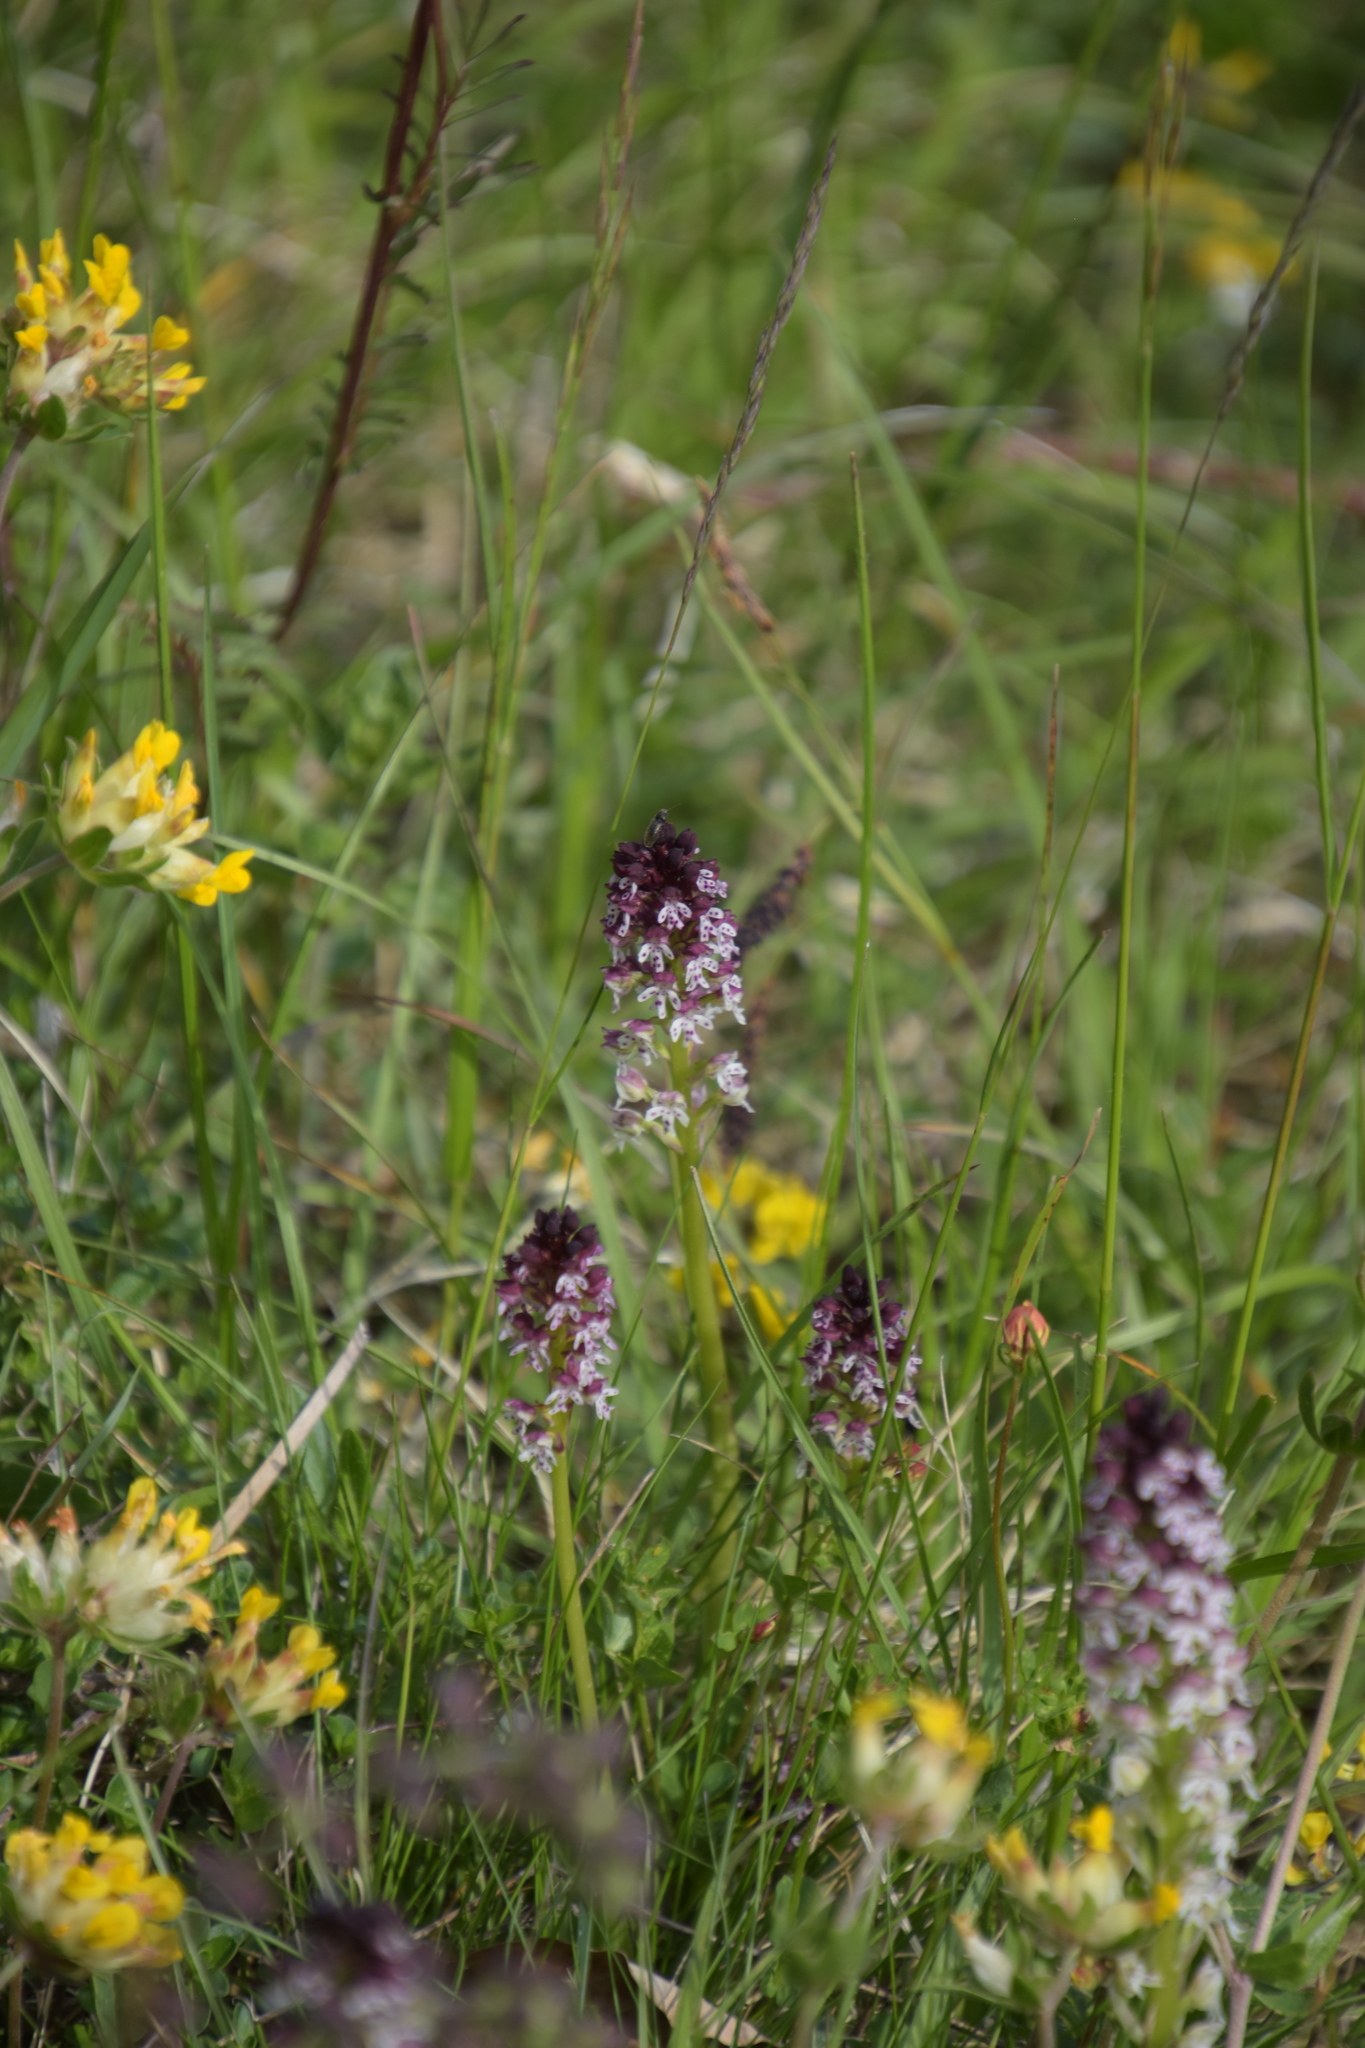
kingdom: Plantae
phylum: Tracheophyta
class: Liliopsida
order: Asparagales
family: Orchidaceae
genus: Neotinea
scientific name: Neotinea ustulata
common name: Burnt orchid
